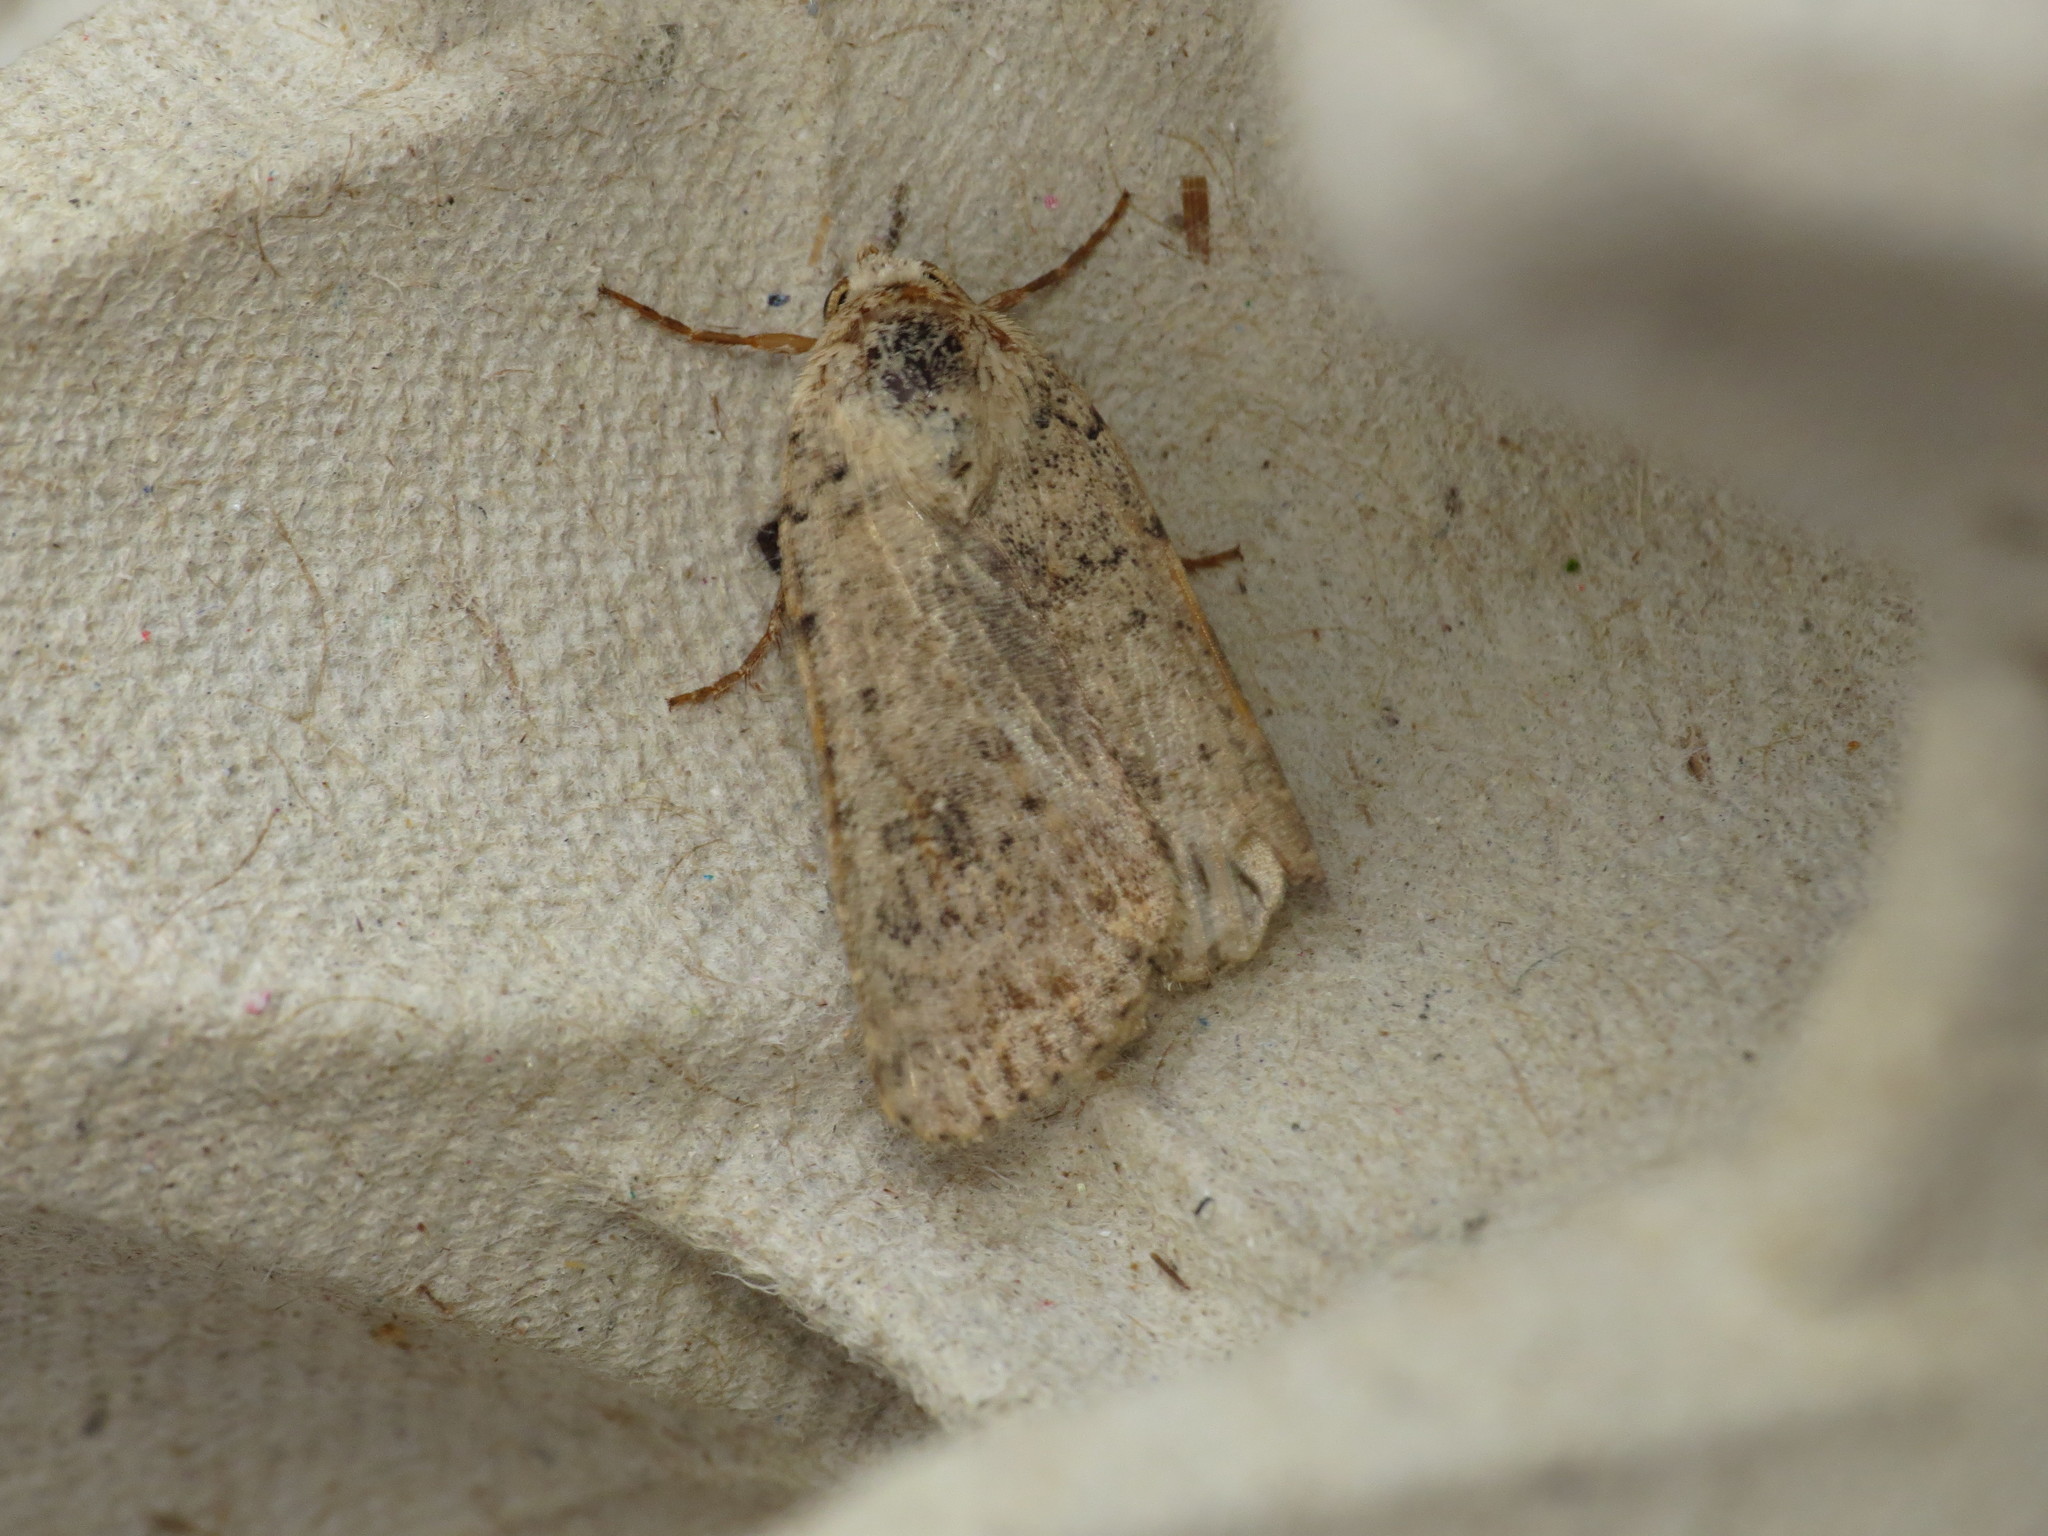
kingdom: Animalia
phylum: Arthropoda
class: Insecta
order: Lepidoptera
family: Noctuidae
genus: Caradrina
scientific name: Caradrina clavipalpis
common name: Pale mottled willow
